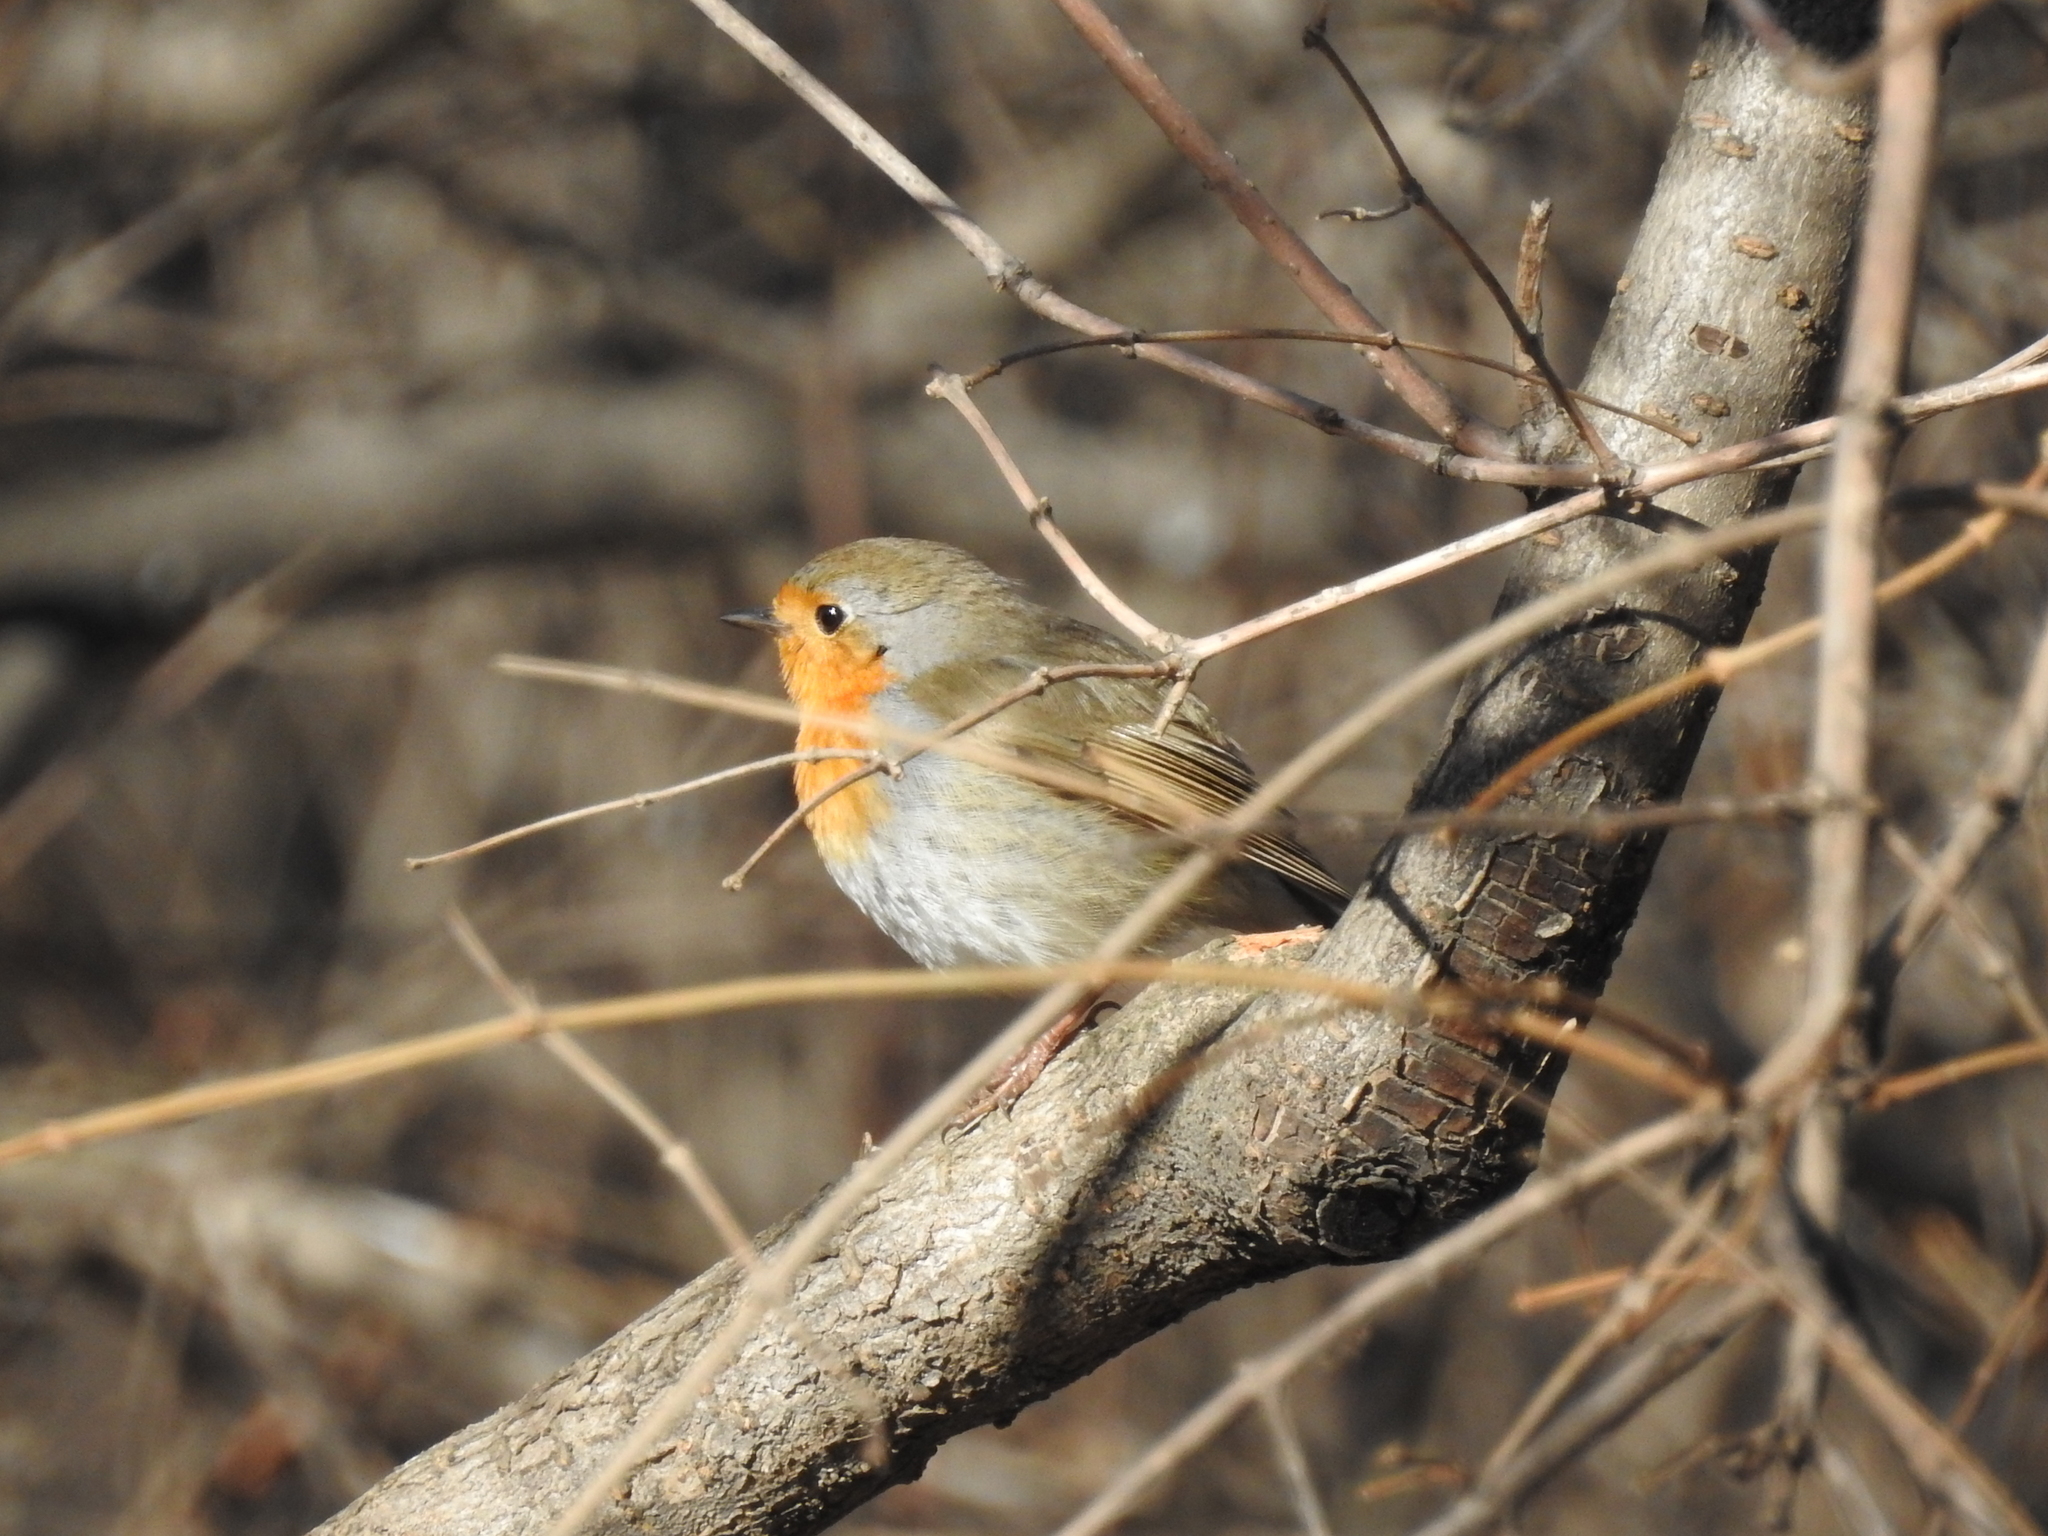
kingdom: Animalia
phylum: Chordata
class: Aves
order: Passeriformes
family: Muscicapidae
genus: Erithacus
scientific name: Erithacus rubecula
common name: European robin
